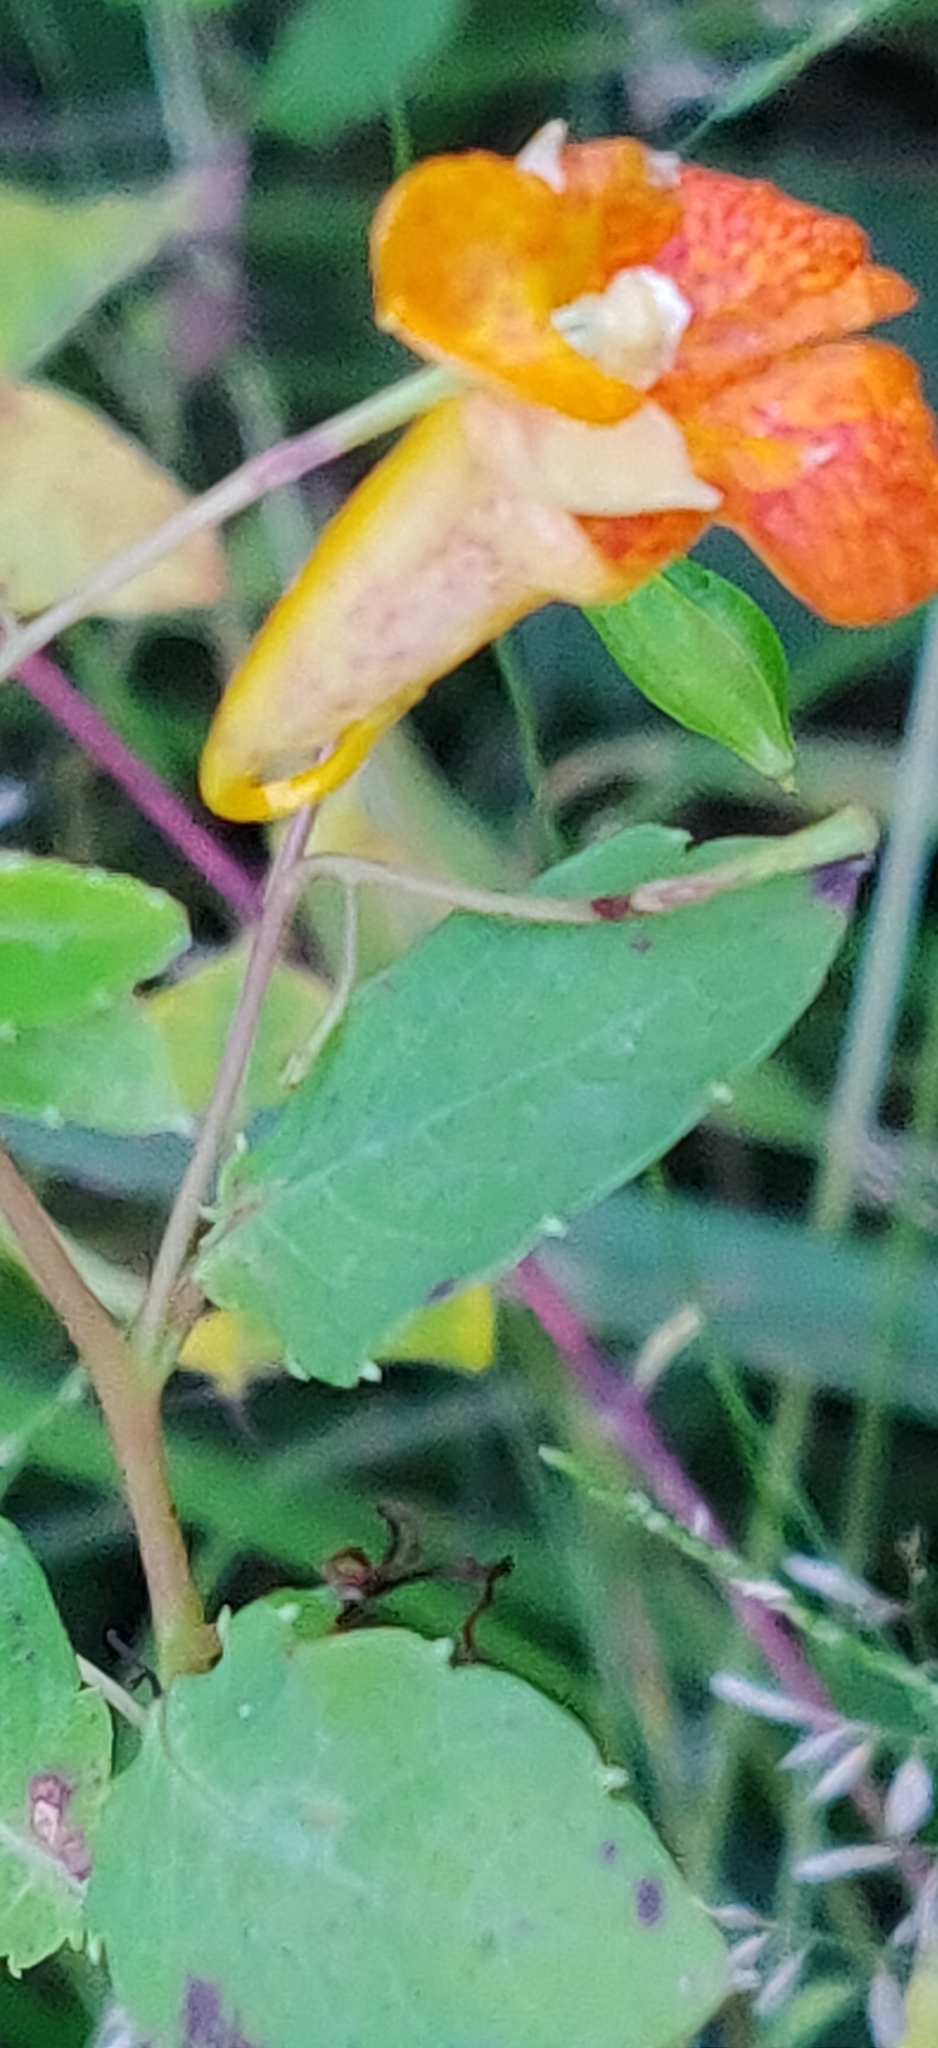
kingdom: Plantae
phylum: Tracheophyta
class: Magnoliopsida
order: Ericales
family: Balsaminaceae
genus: Impatiens
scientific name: Impatiens capensis
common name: Orange balsam
